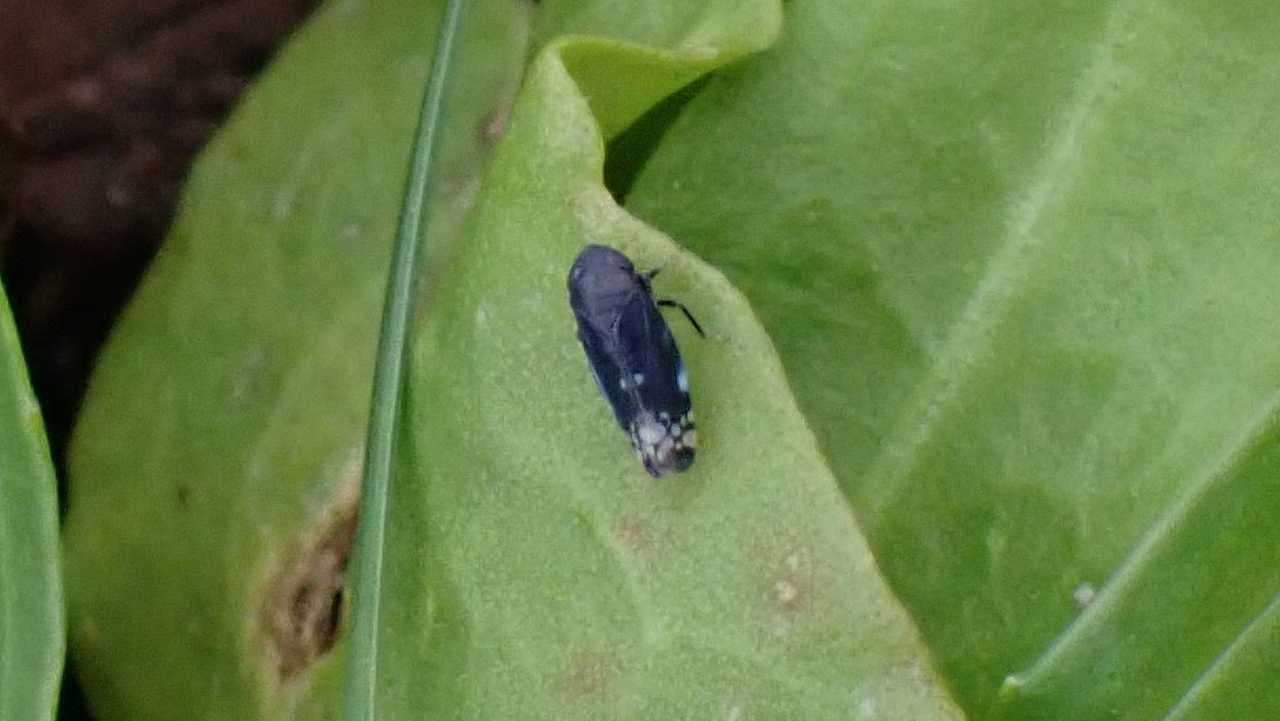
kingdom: Animalia
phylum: Arthropoda
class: Insecta
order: Hemiptera
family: Cicadellidae
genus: Neoaliturus
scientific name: Neoaliturus fenestratus
